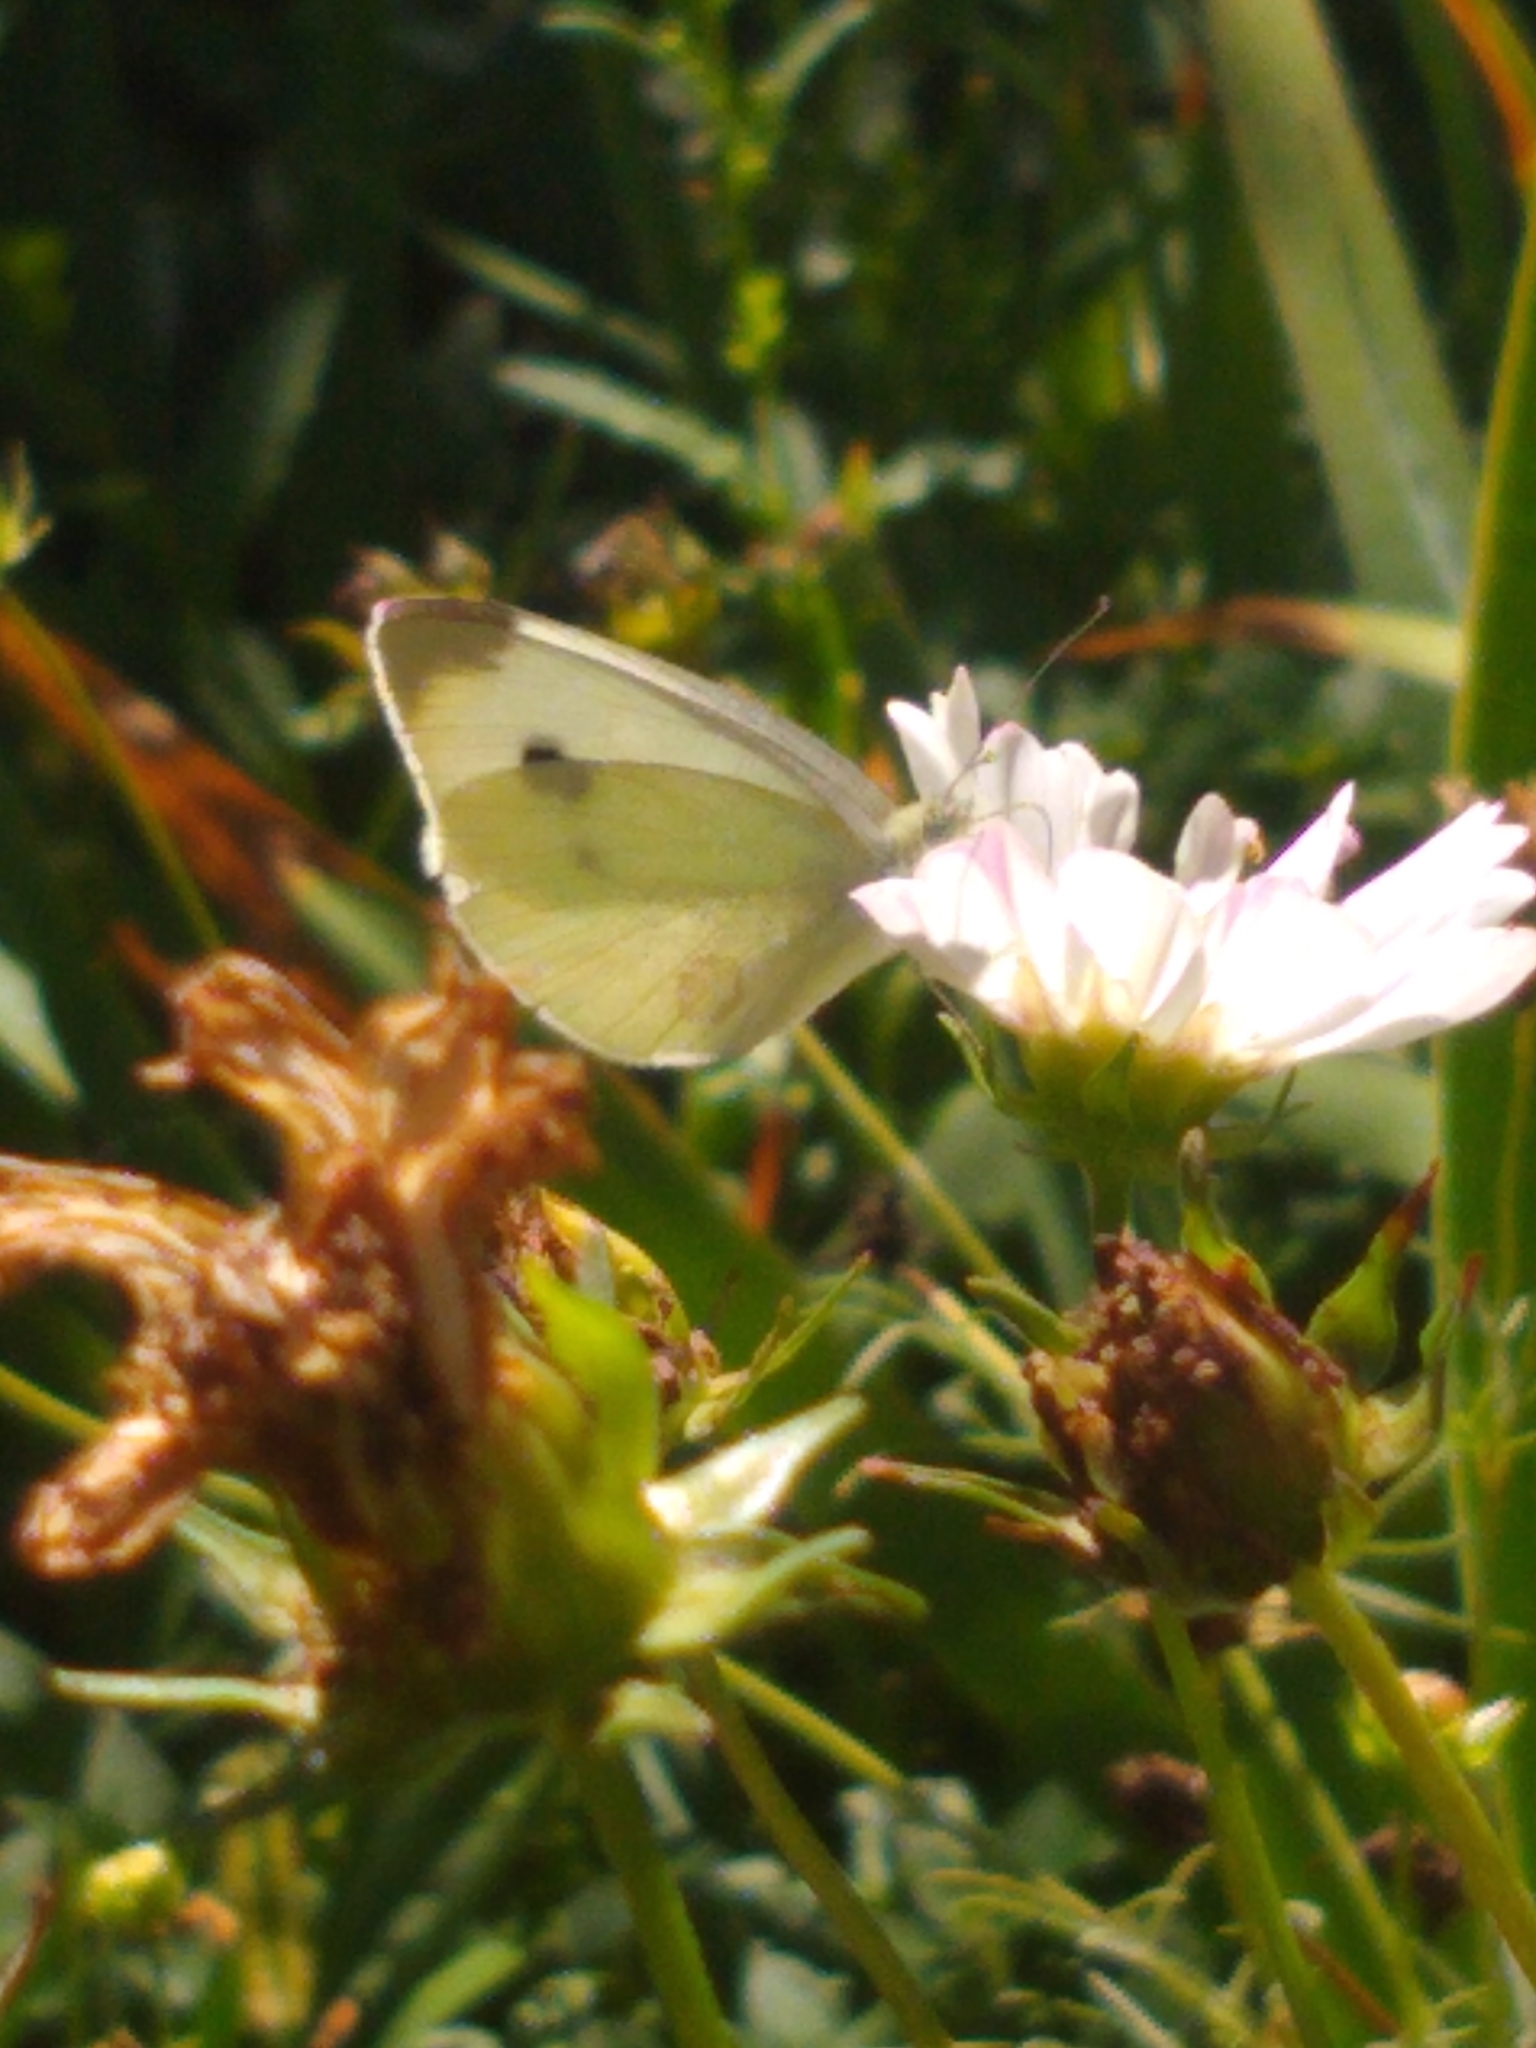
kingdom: Animalia
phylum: Arthropoda
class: Insecta
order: Lepidoptera
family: Pieridae
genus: Pieris
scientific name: Pieris rapae
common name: Small white
